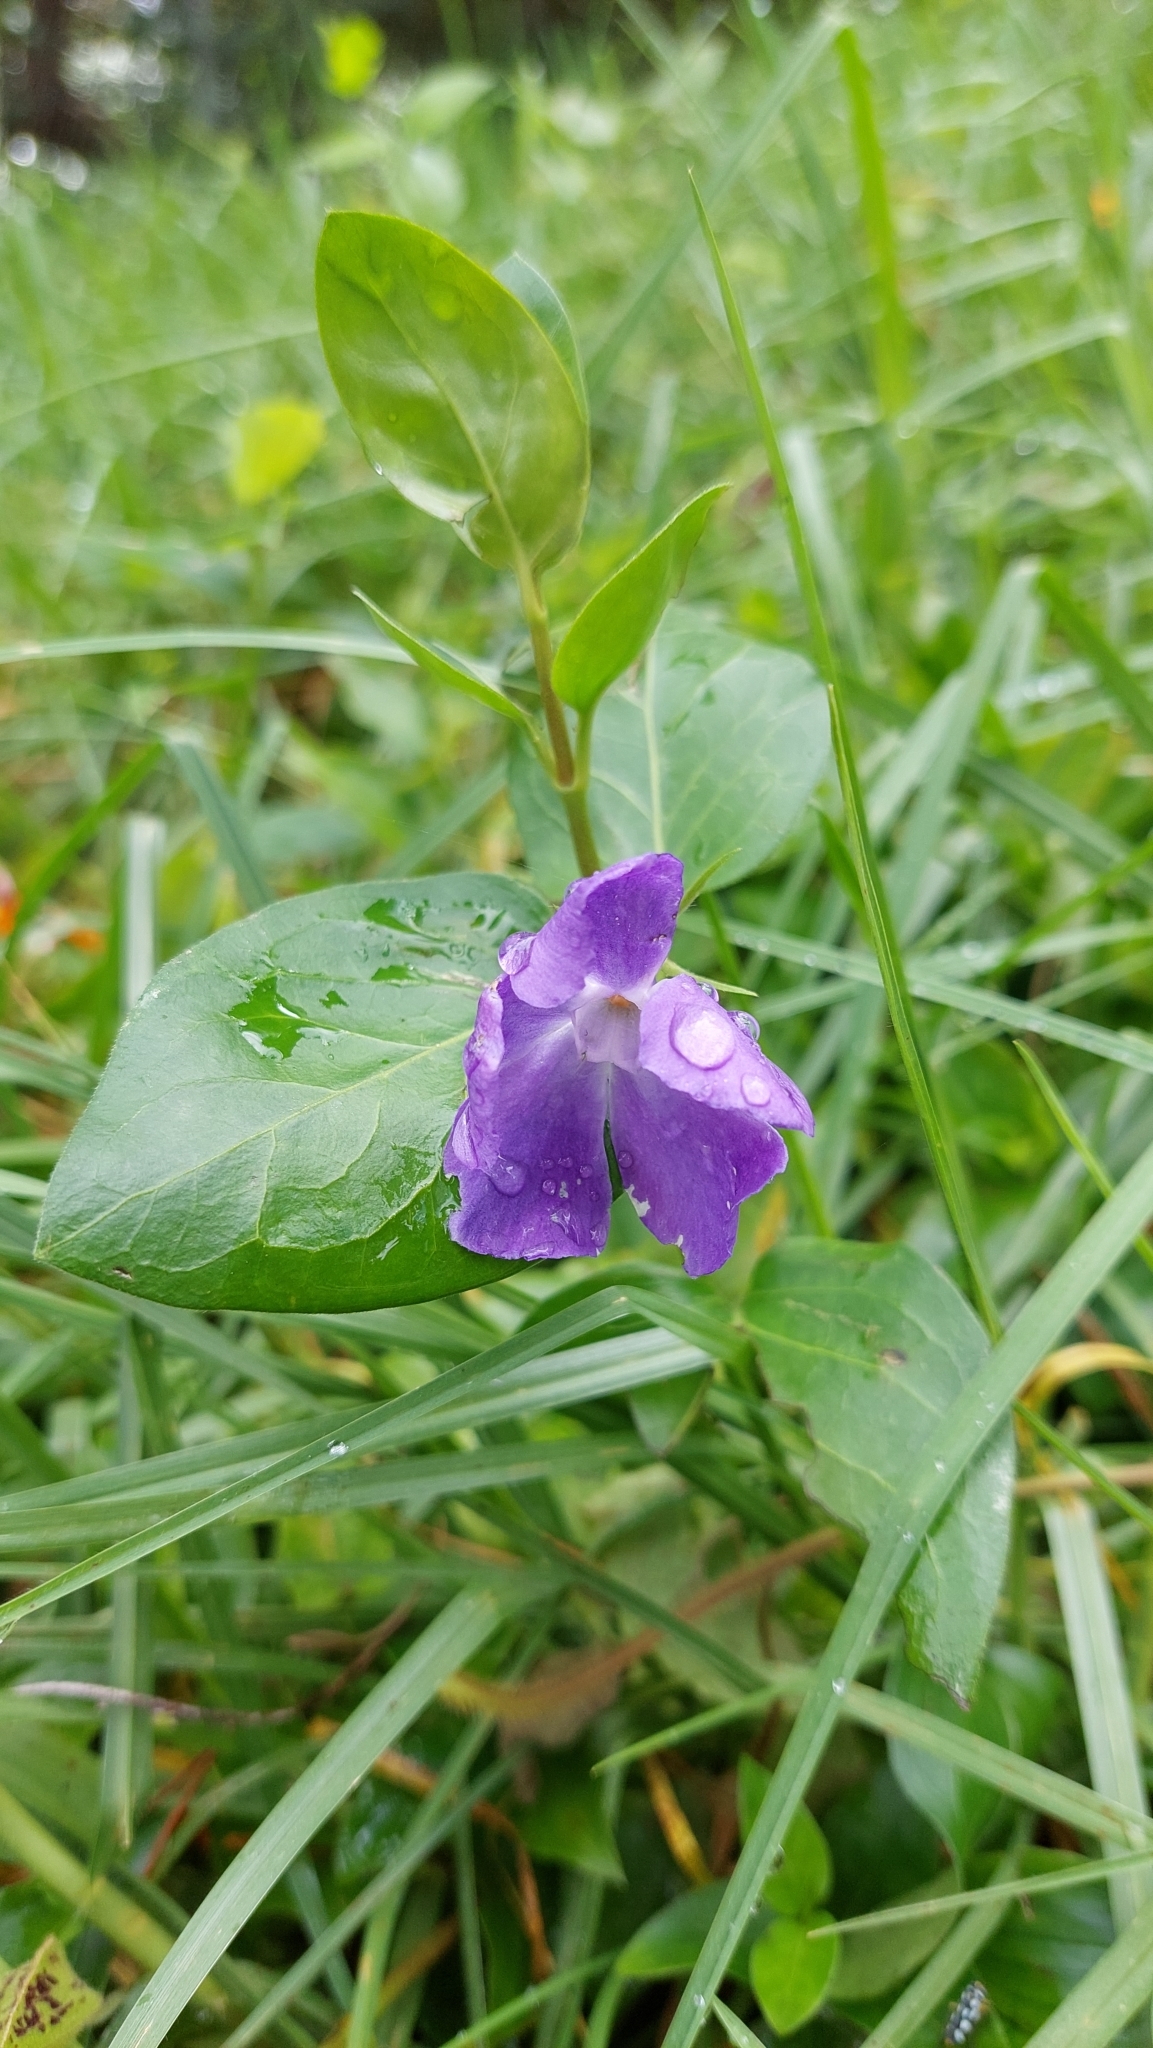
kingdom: Plantae
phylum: Tracheophyta
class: Magnoliopsida
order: Gentianales
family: Apocynaceae
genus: Vinca
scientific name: Vinca major
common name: Greater periwinkle
